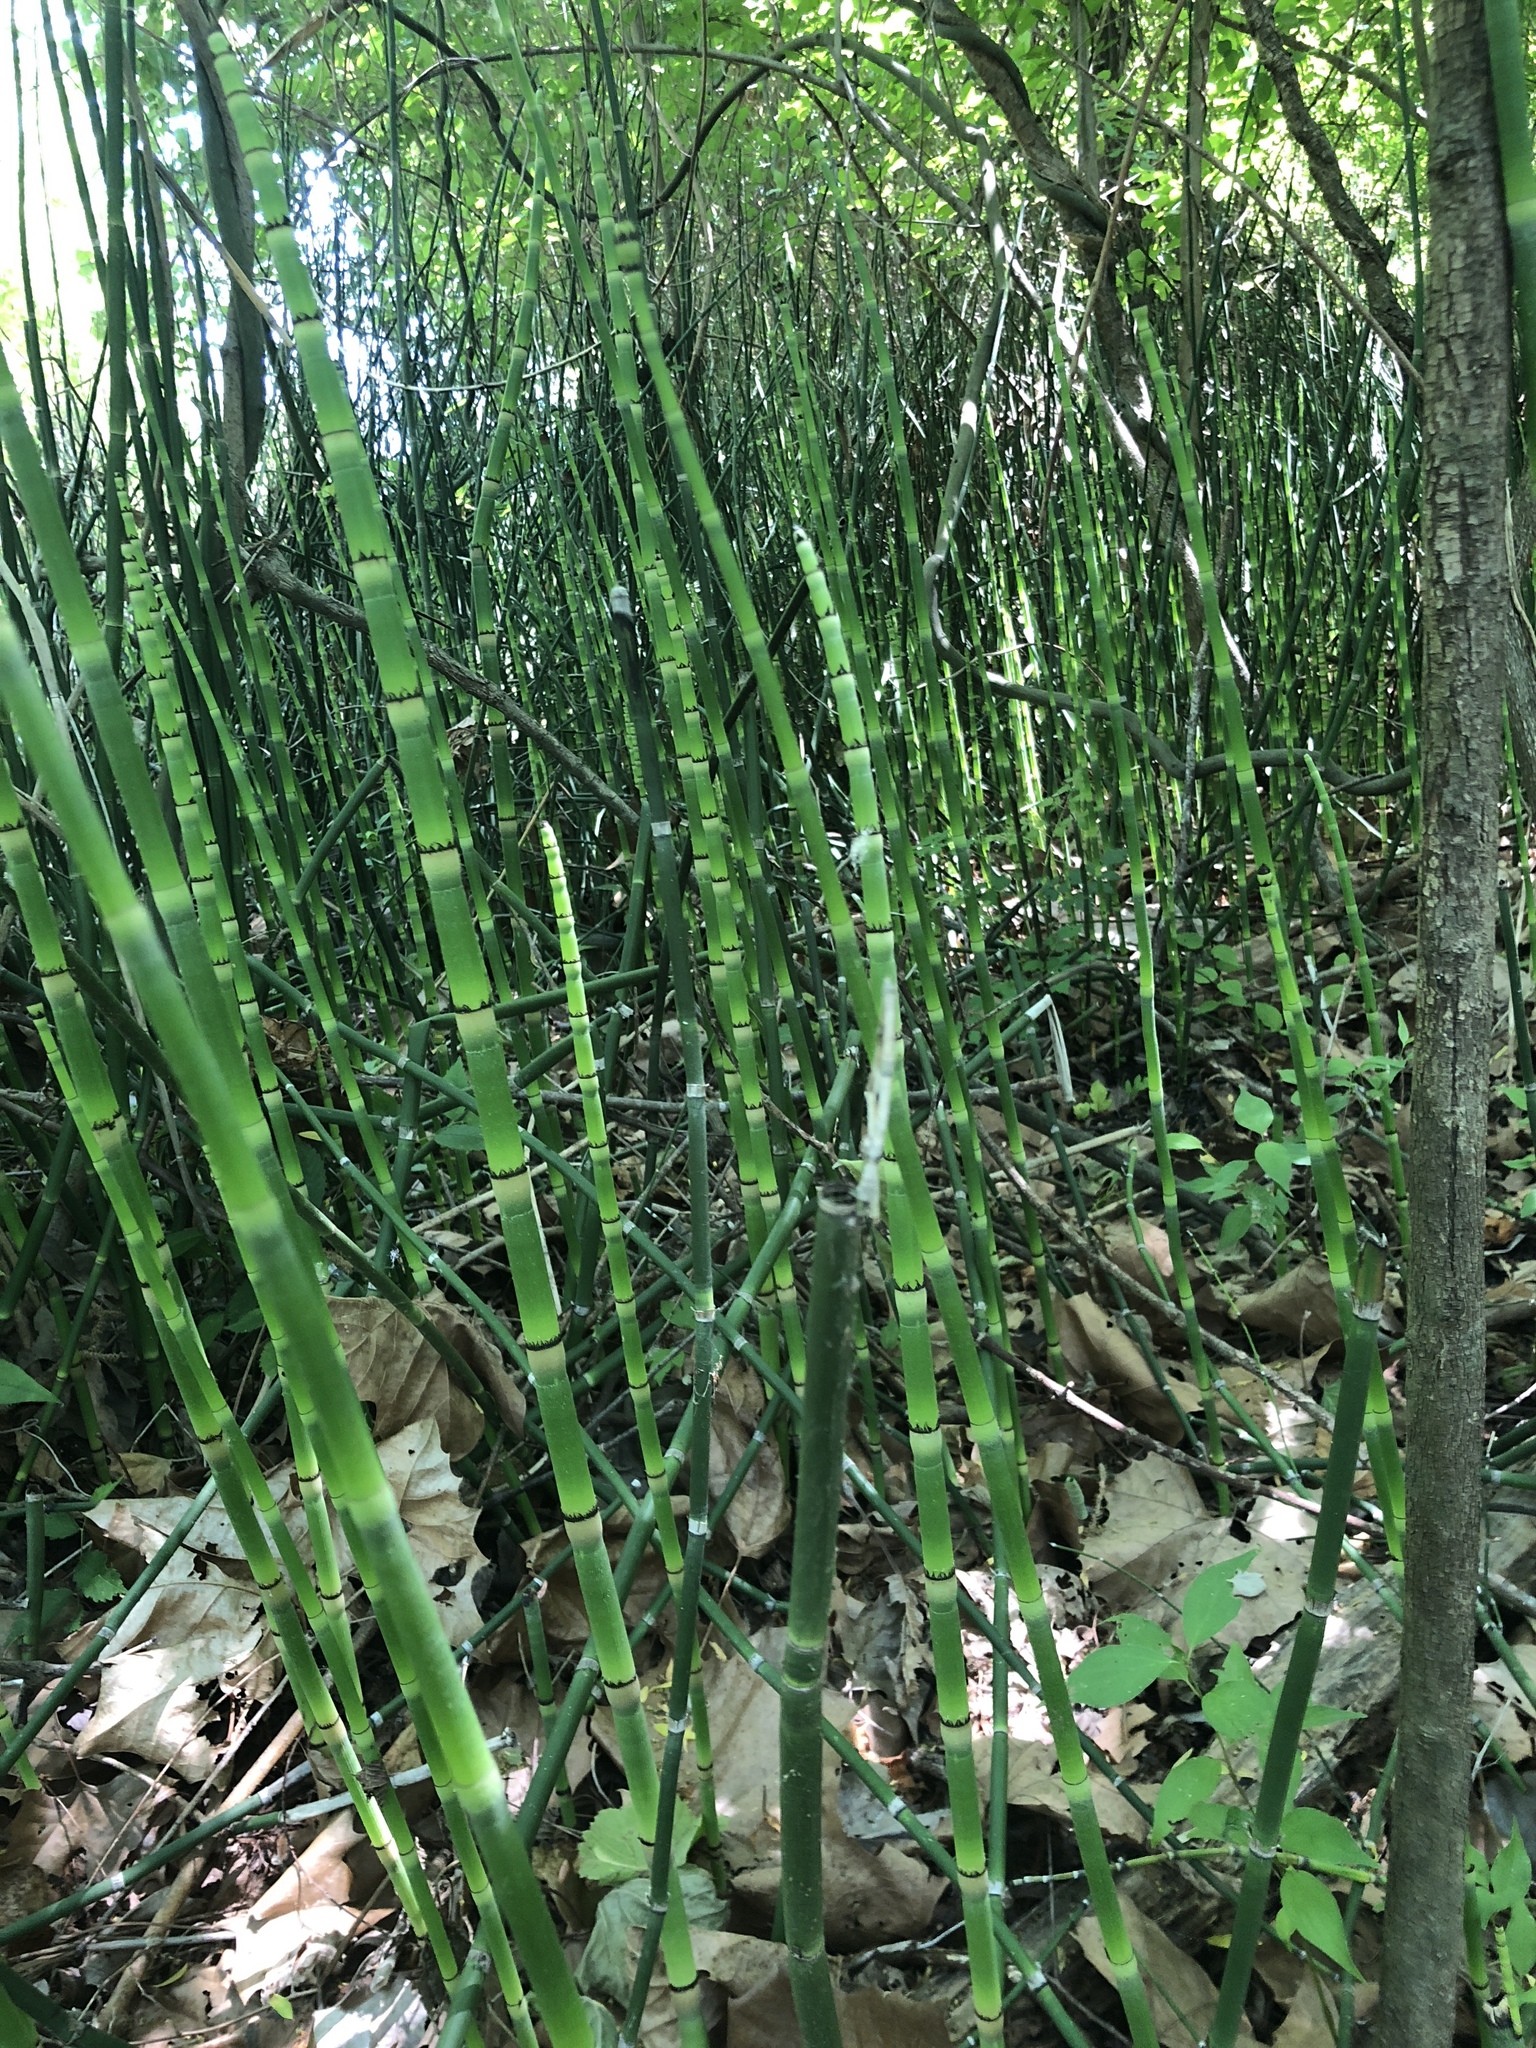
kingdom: Plantae
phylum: Tracheophyta
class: Polypodiopsida
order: Equisetales
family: Equisetaceae
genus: Equisetum
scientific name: Equisetum hyemale
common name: Rough horsetail
